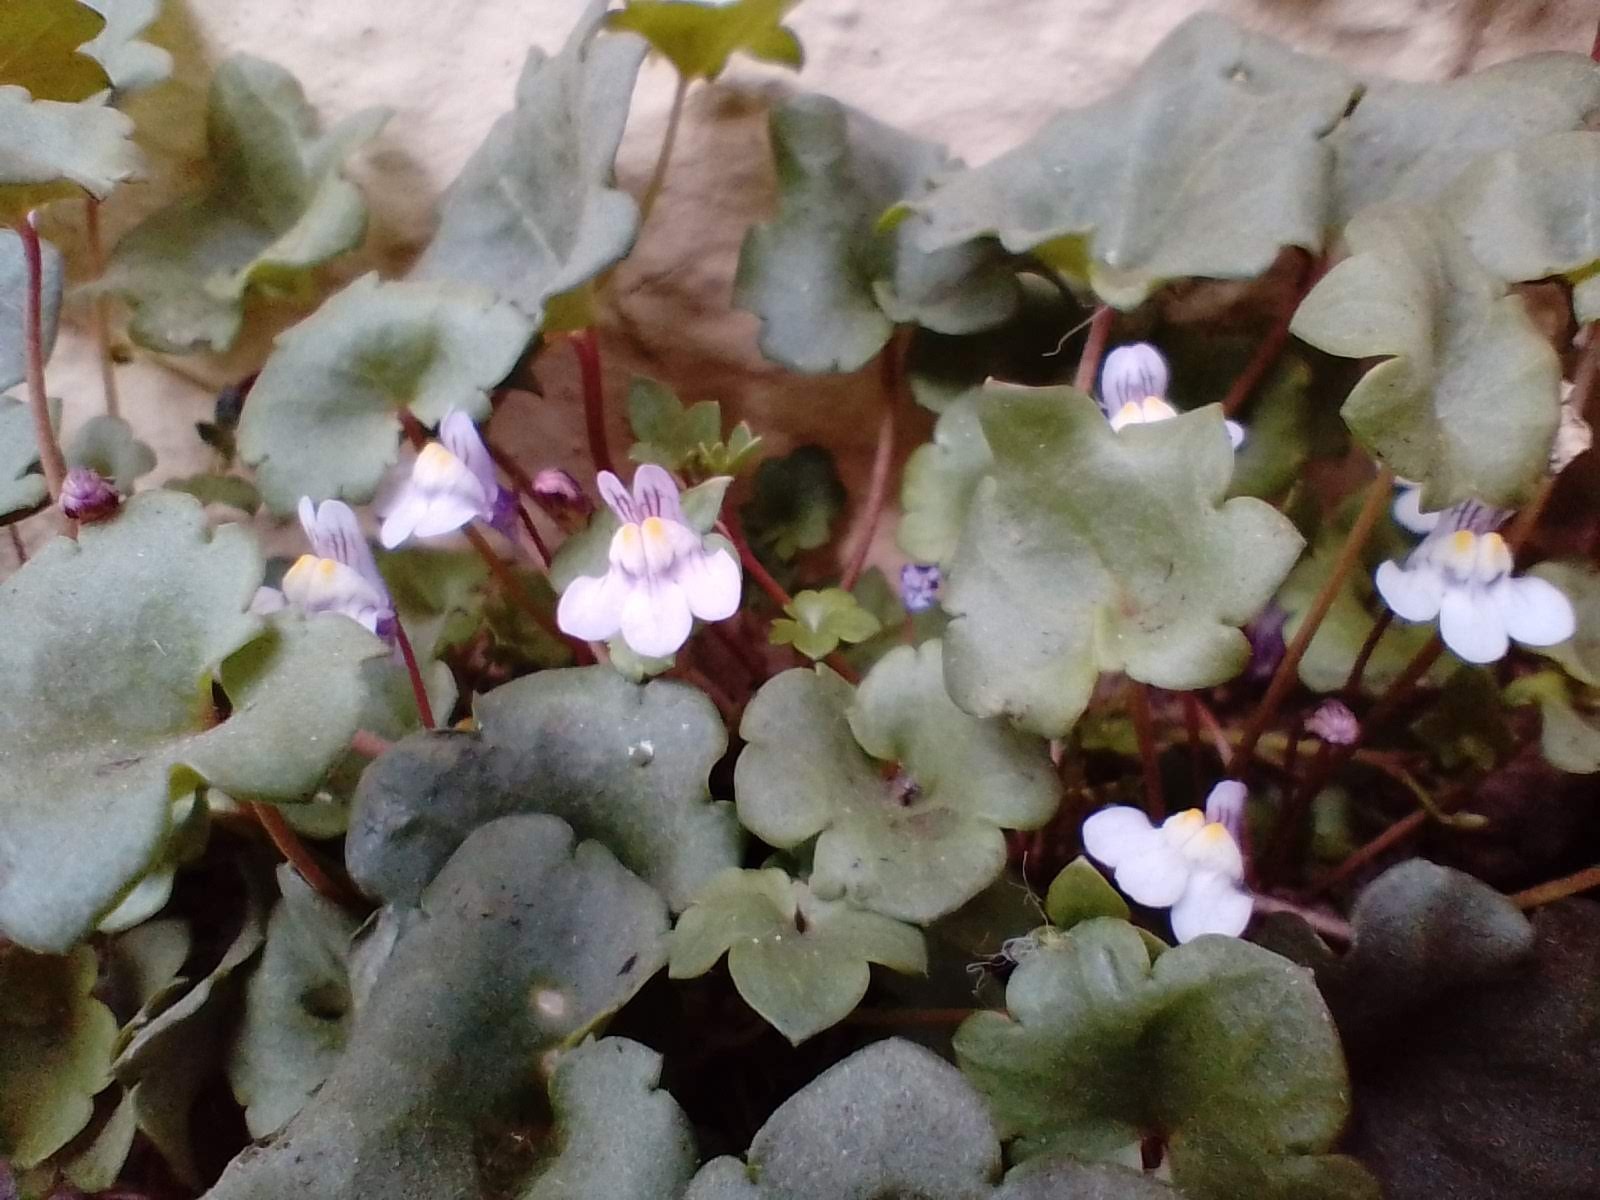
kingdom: Plantae
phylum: Tracheophyta
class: Magnoliopsida
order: Lamiales
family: Plantaginaceae
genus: Cymbalaria
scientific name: Cymbalaria muralis
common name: Ivy-leaved toadflax
